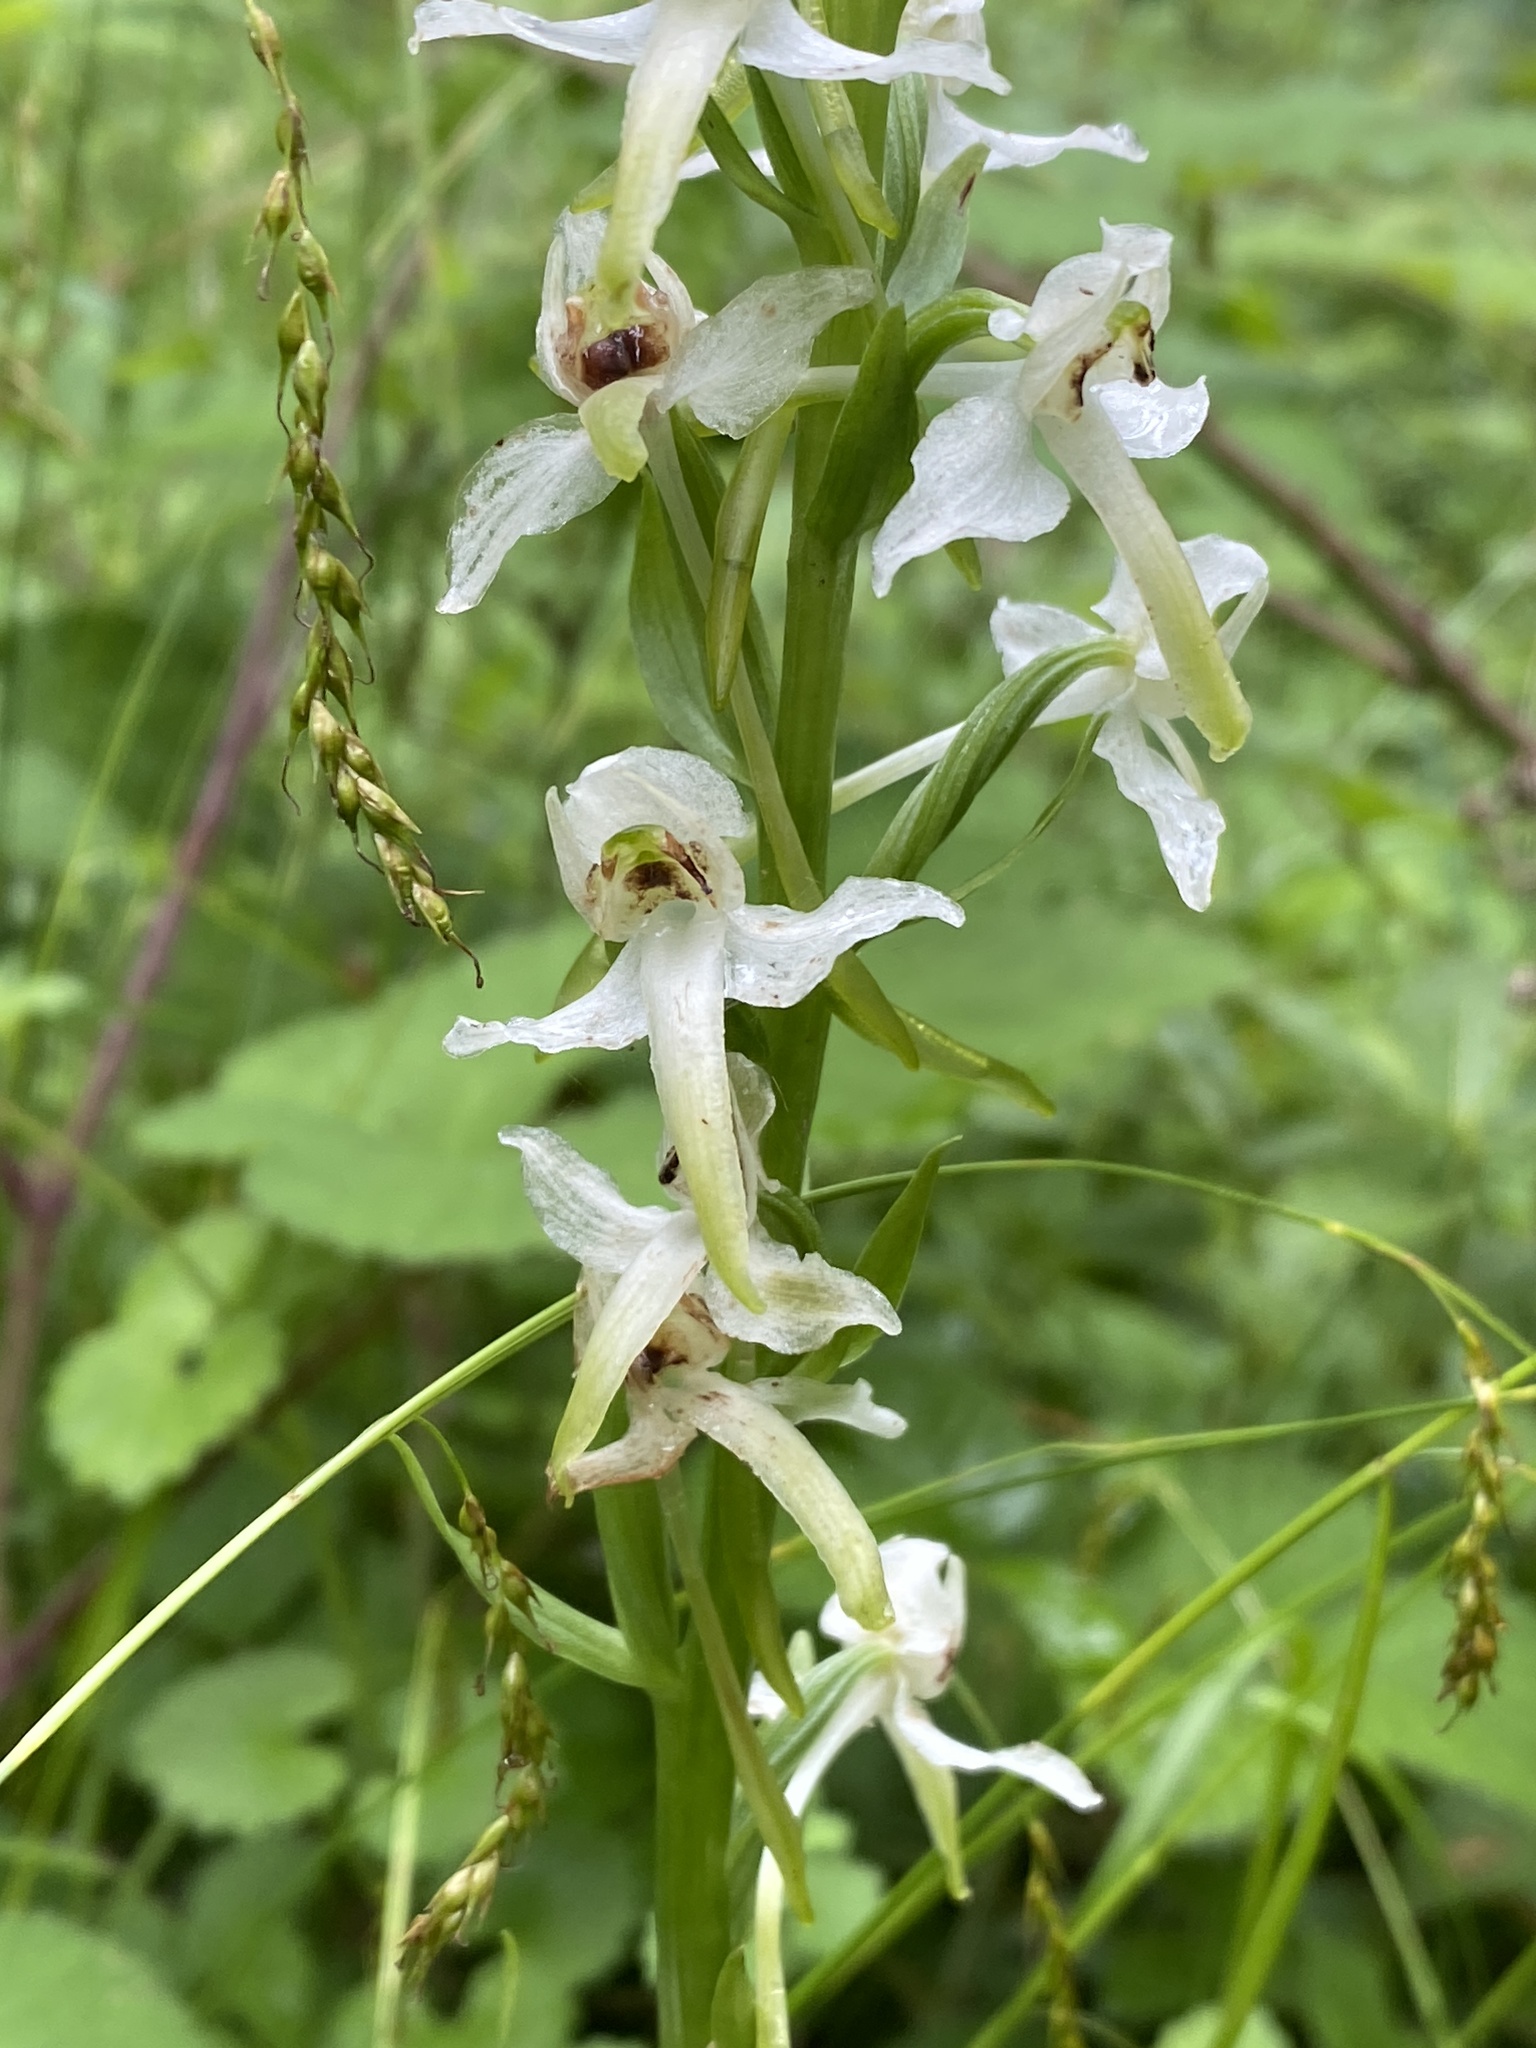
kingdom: Plantae
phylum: Tracheophyta
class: Liliopsida
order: Asparagales
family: Orchidaceae
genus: Platanthera
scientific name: Platanthera chlorantha
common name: Greater butterfly-orchid
